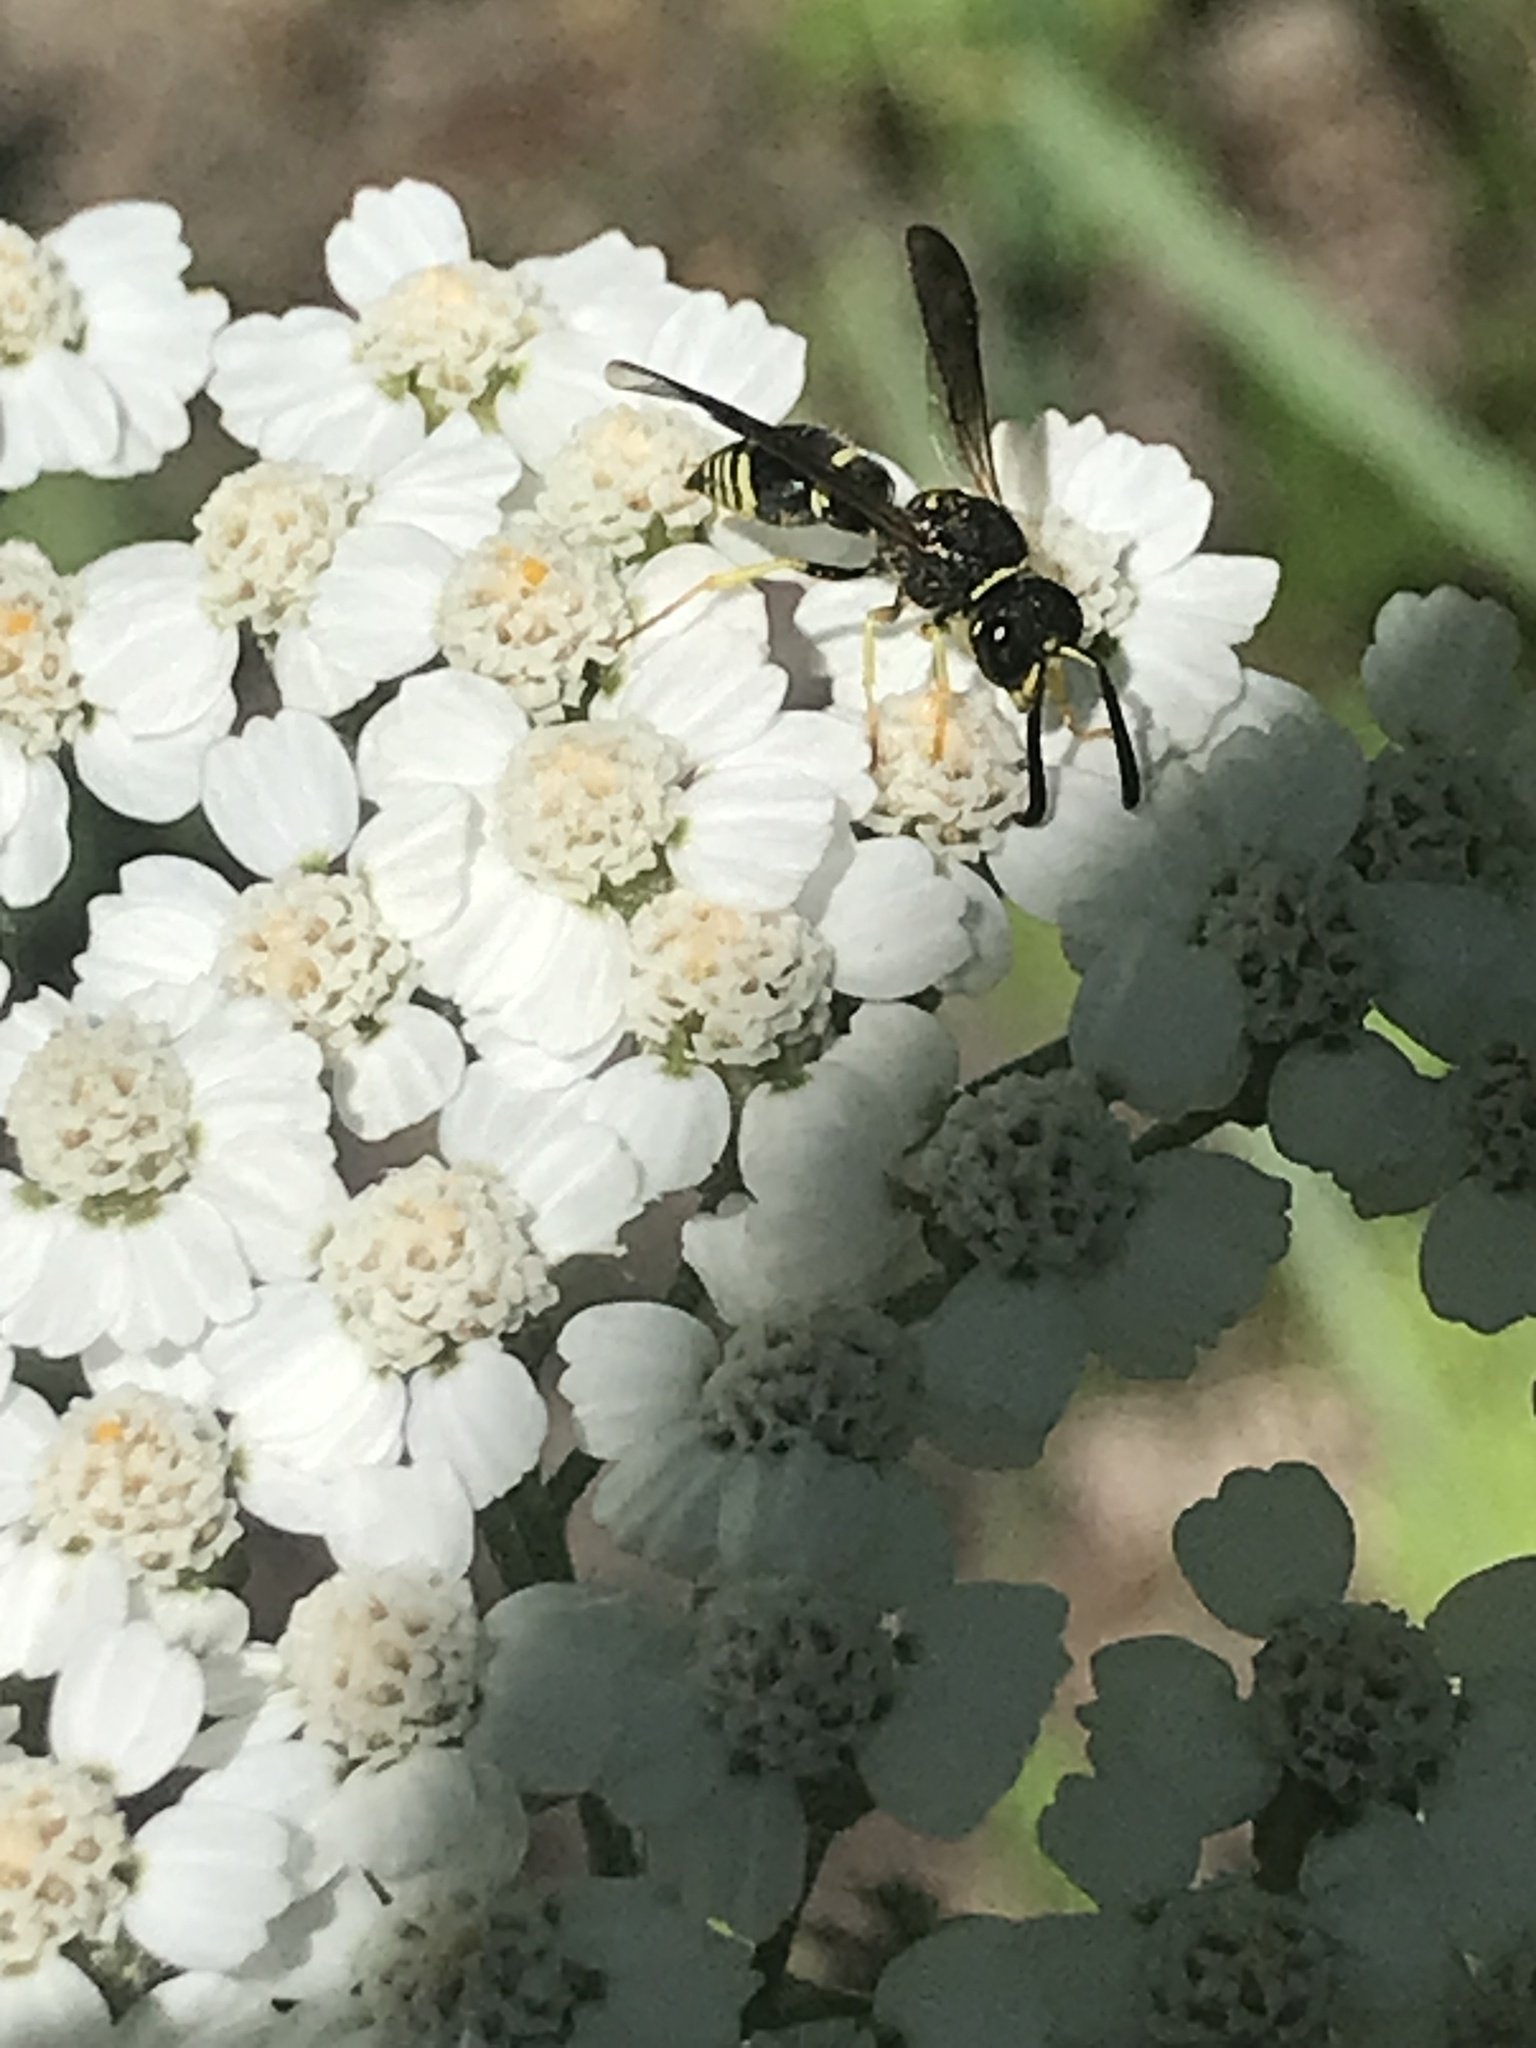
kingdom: Animalia
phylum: Arthropoda
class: Insecta
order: Hymenoptera
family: Vespidae
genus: Ancistrocerus
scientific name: Ancistrocerus
